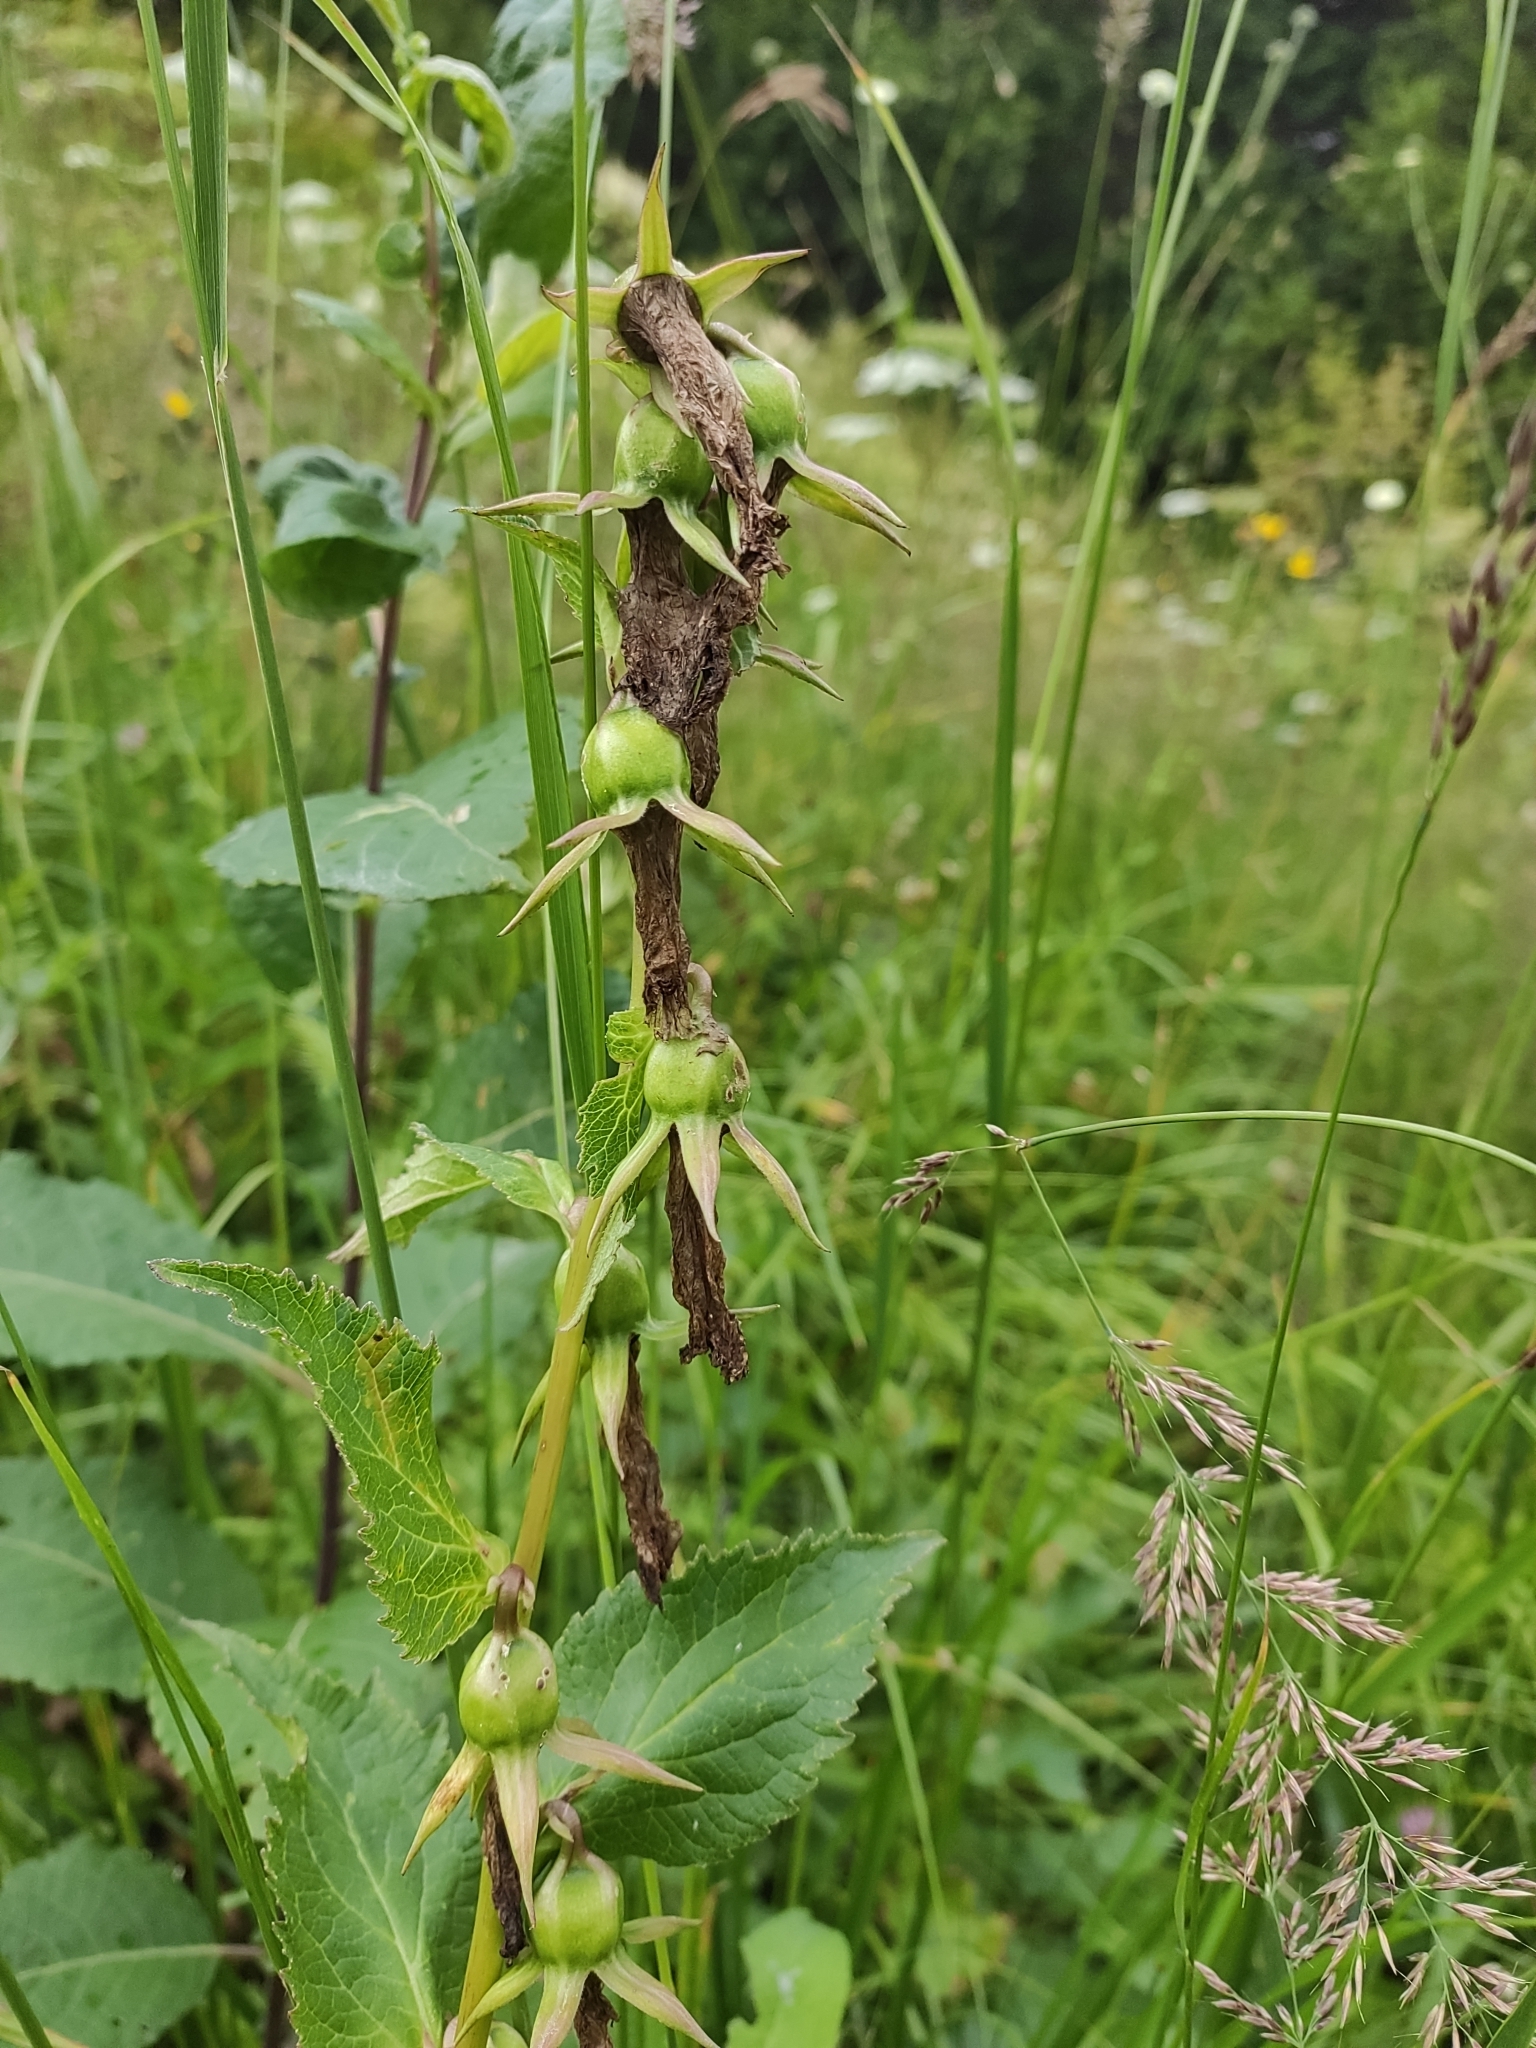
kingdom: Plantae
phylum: Tracheophyta
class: Magnoliopsida
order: Asterales
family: Campanulaceae
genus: Campanula
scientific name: Campanula latifolia
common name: Giant bellflower
